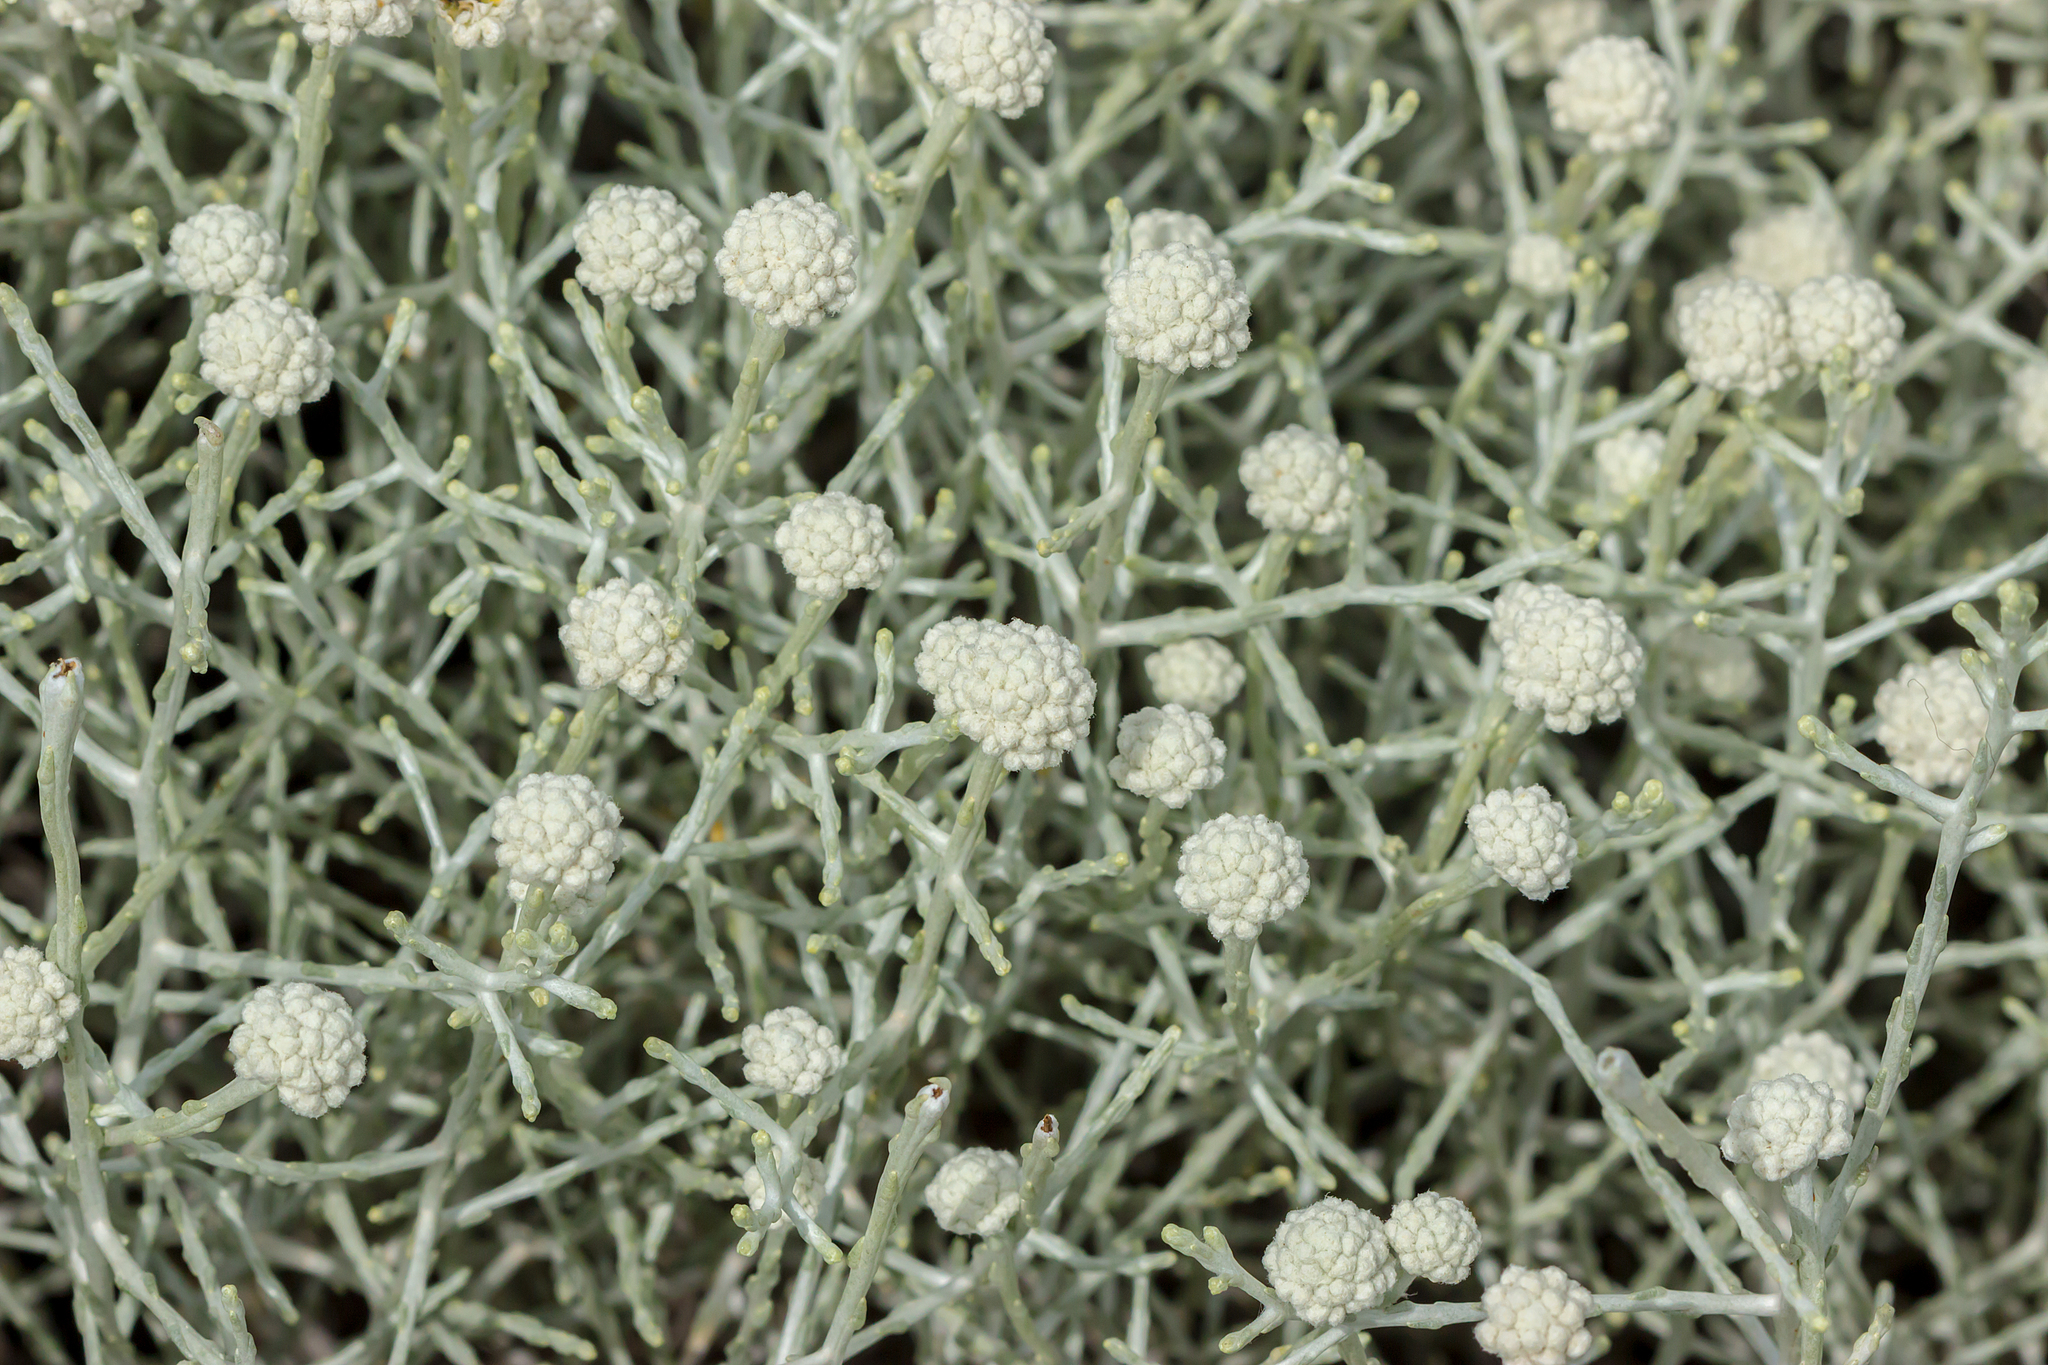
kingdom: Plantae
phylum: Tracheophyta
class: Magnoliopsida
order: Asterales
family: Asteraceae
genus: Calocephalus
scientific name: Calocephalus brownii
